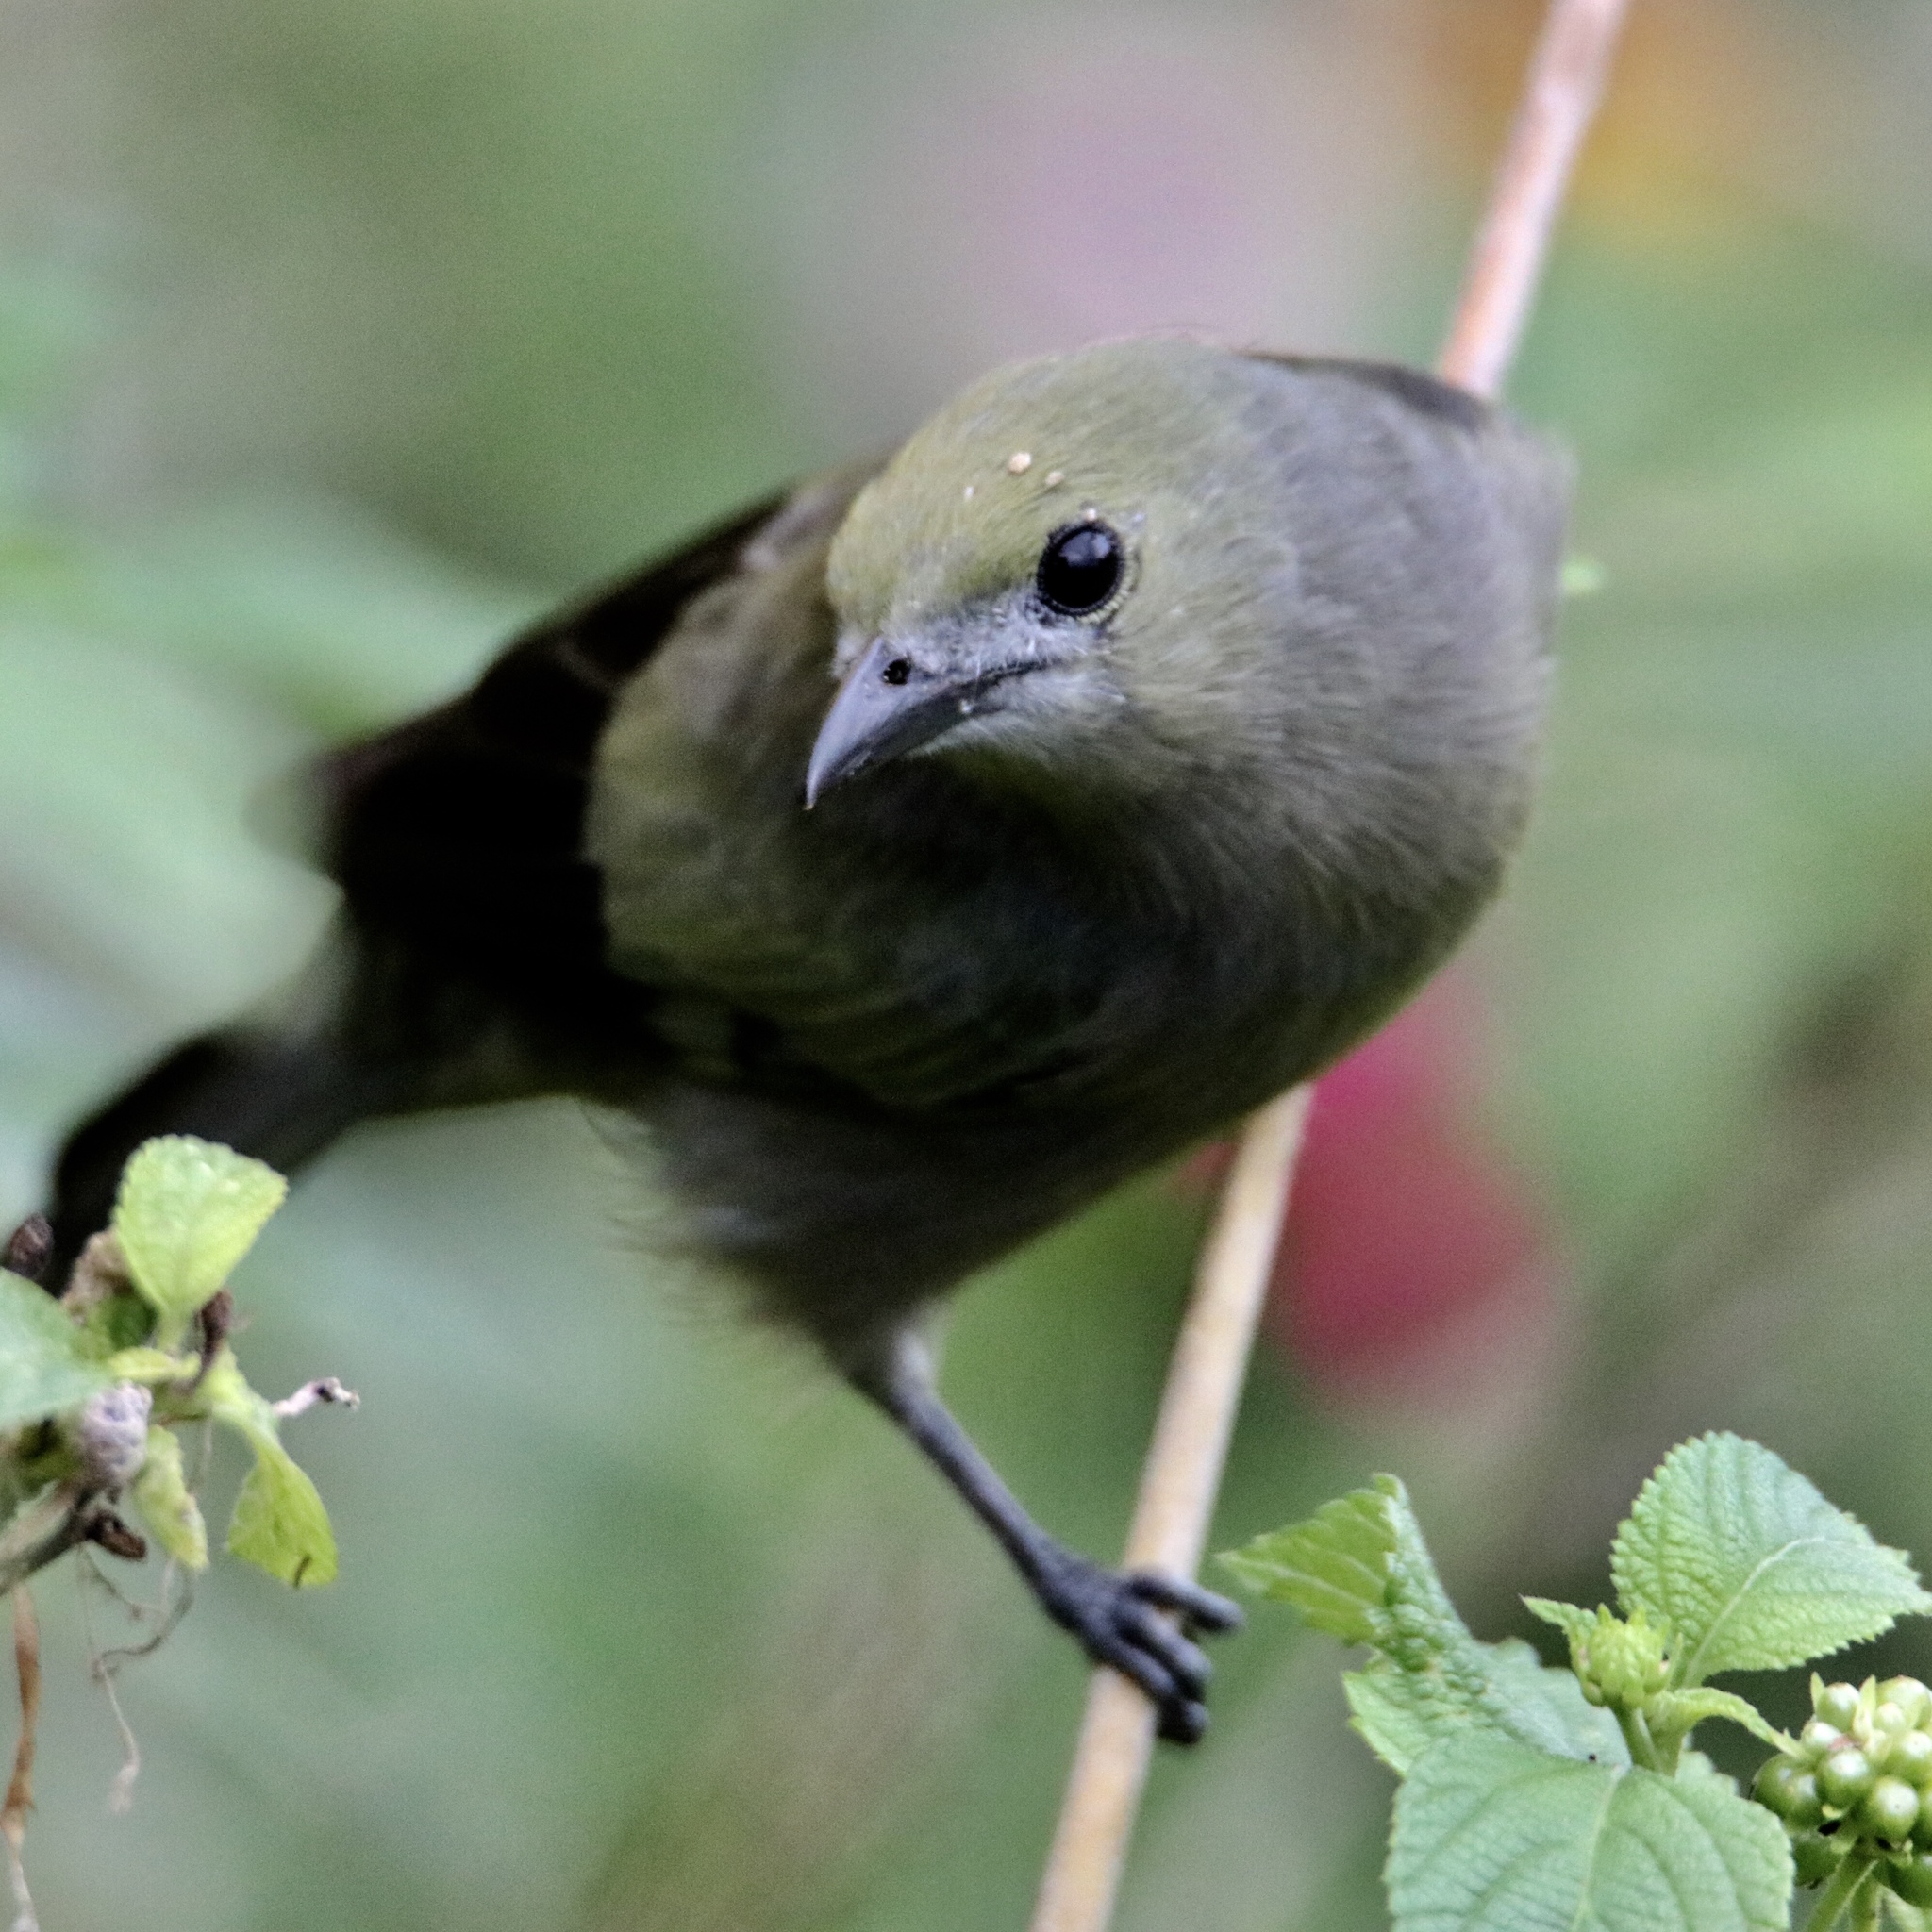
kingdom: Animalia
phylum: Chordata
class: Aves
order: Passeriformes
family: Thraupidae
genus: Thraupis
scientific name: Thraupis palmarum
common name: Palm tanager
